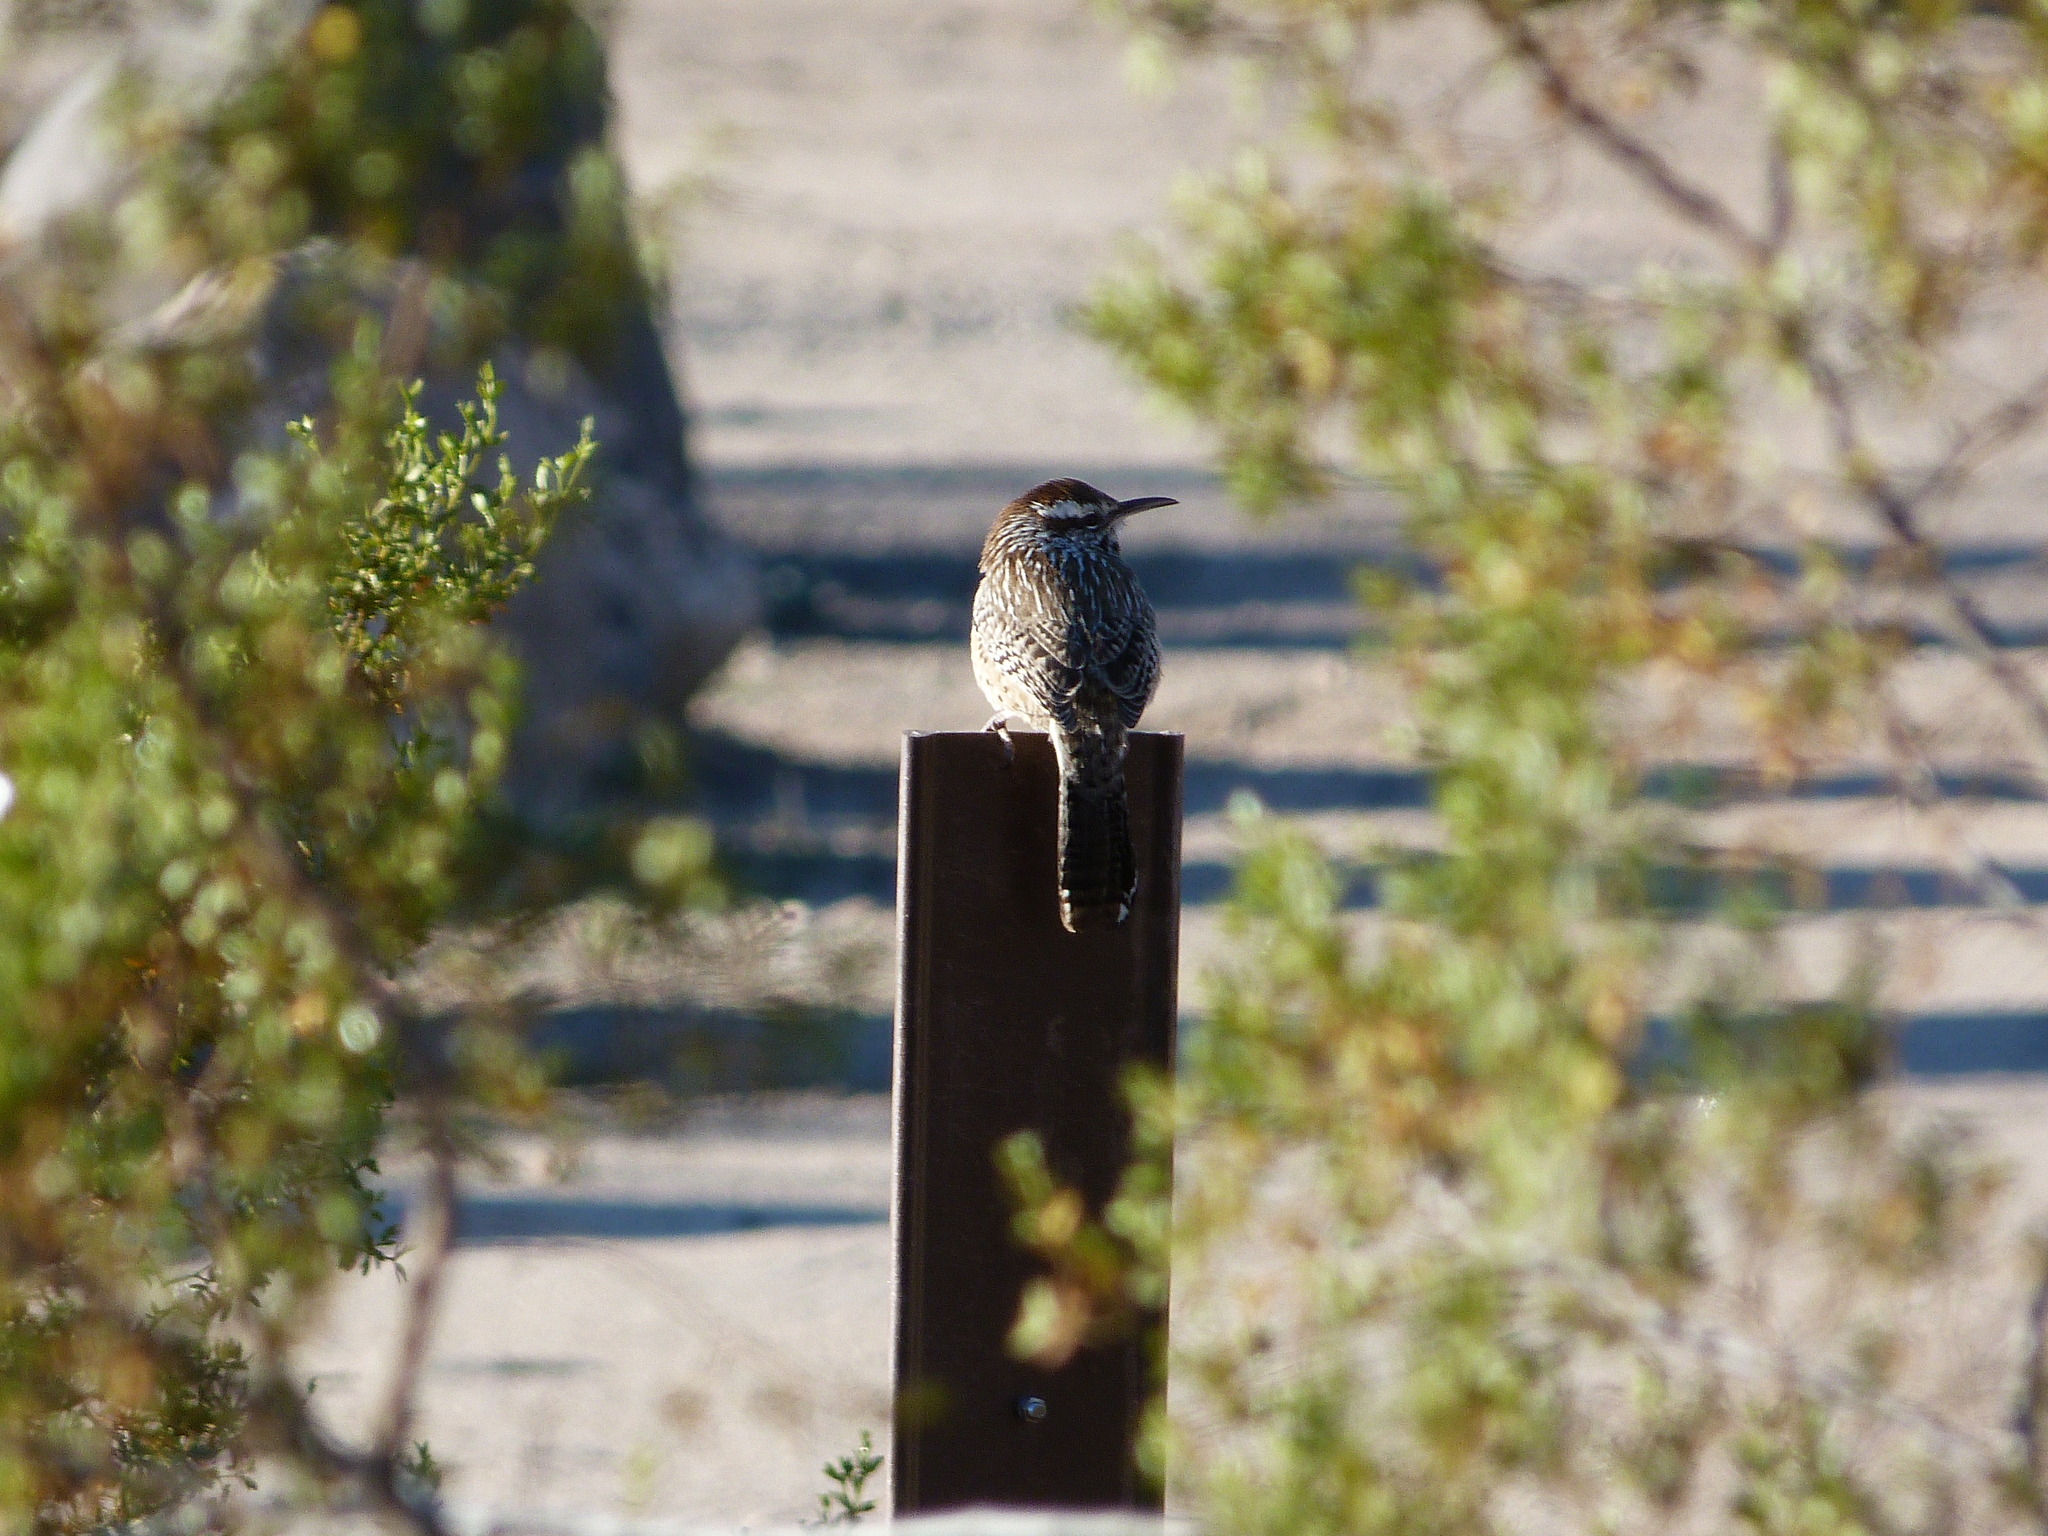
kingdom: Animalia
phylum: Chordata
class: Aves
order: Passeriformes
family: Troglodytidae
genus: Campylorhynchus
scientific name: Campylorhynchus brunneicapillus
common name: Cactus wren
